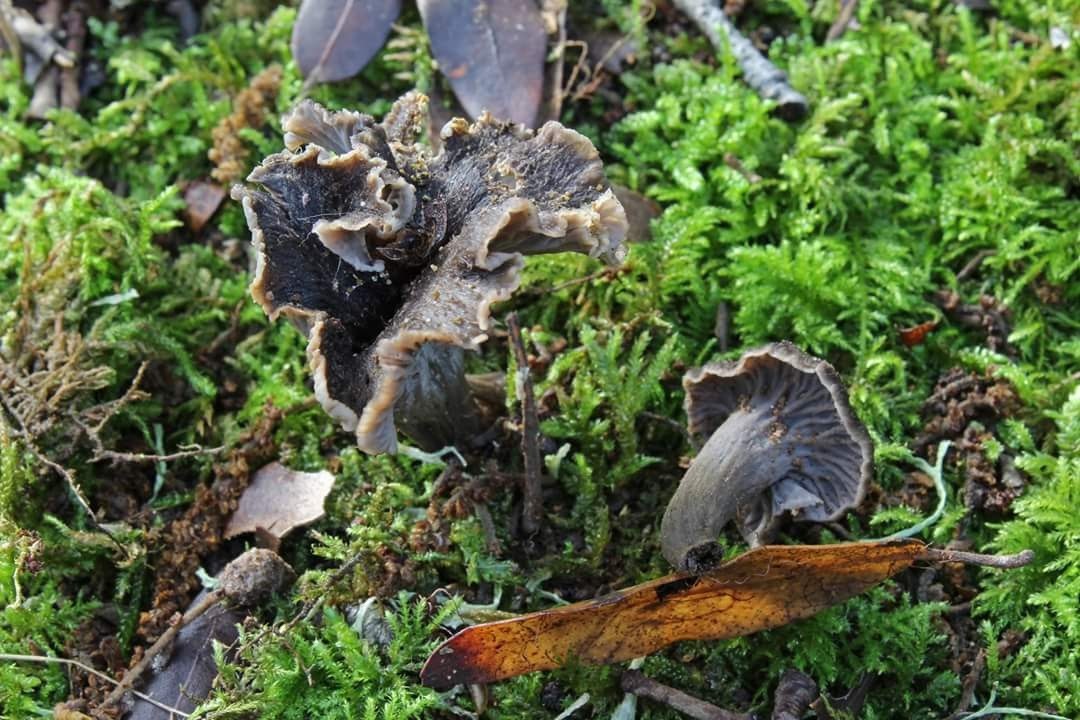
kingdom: Fungi
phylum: Basidiomycota
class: Agaricomycetes
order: Cantharellales
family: Hydnaceae
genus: Cantharellus
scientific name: Cantharellus cinereus
